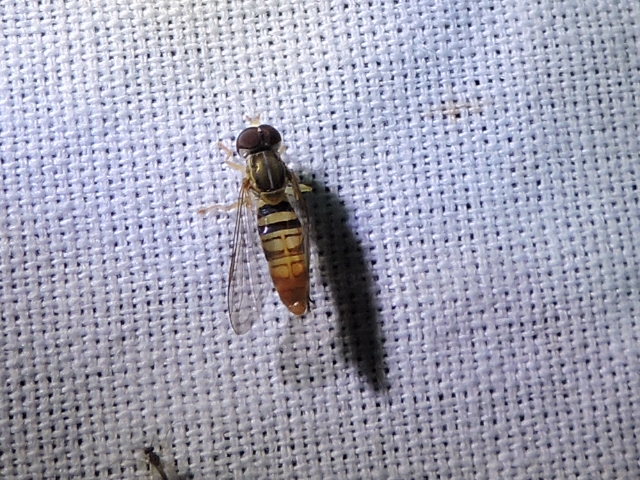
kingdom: Animalia
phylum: Arthropoda
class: Insecta
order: Diptera
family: Syrphidae
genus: Toxomerus
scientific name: Toxomerus politus
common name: Maize calligrapher
